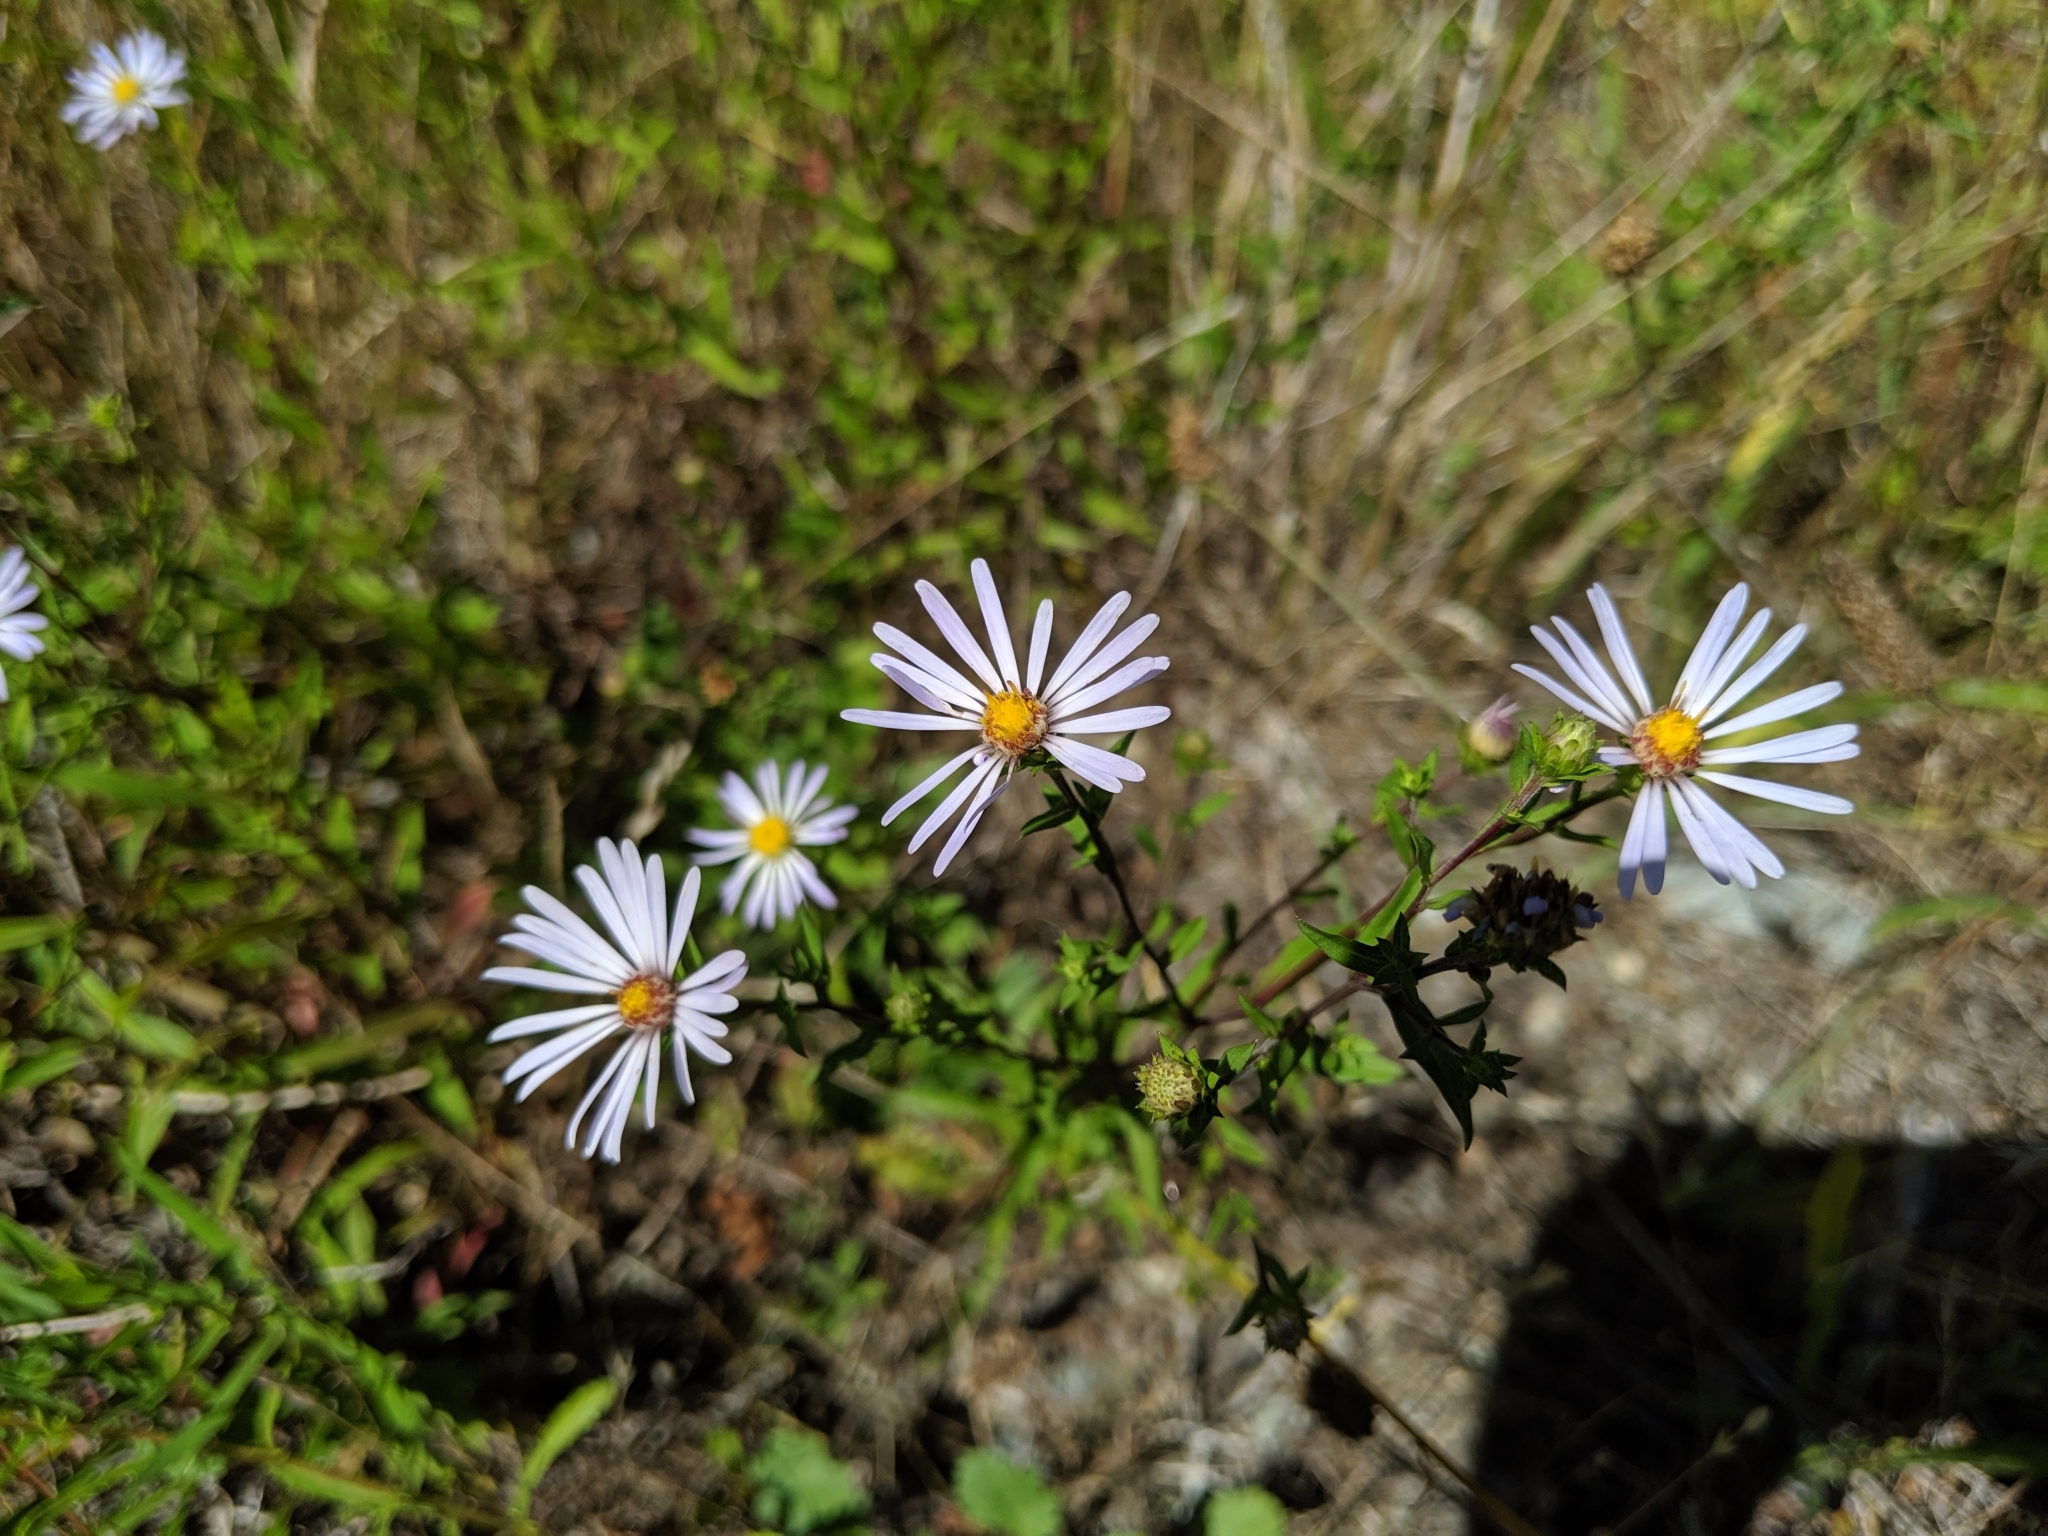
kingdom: Plantae
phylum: Tracheophyta
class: Magnoliopsida
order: Asterales
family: Asteraceae
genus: Symphyotrichum
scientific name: Symphyotrichum chilense
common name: Pacific aster
